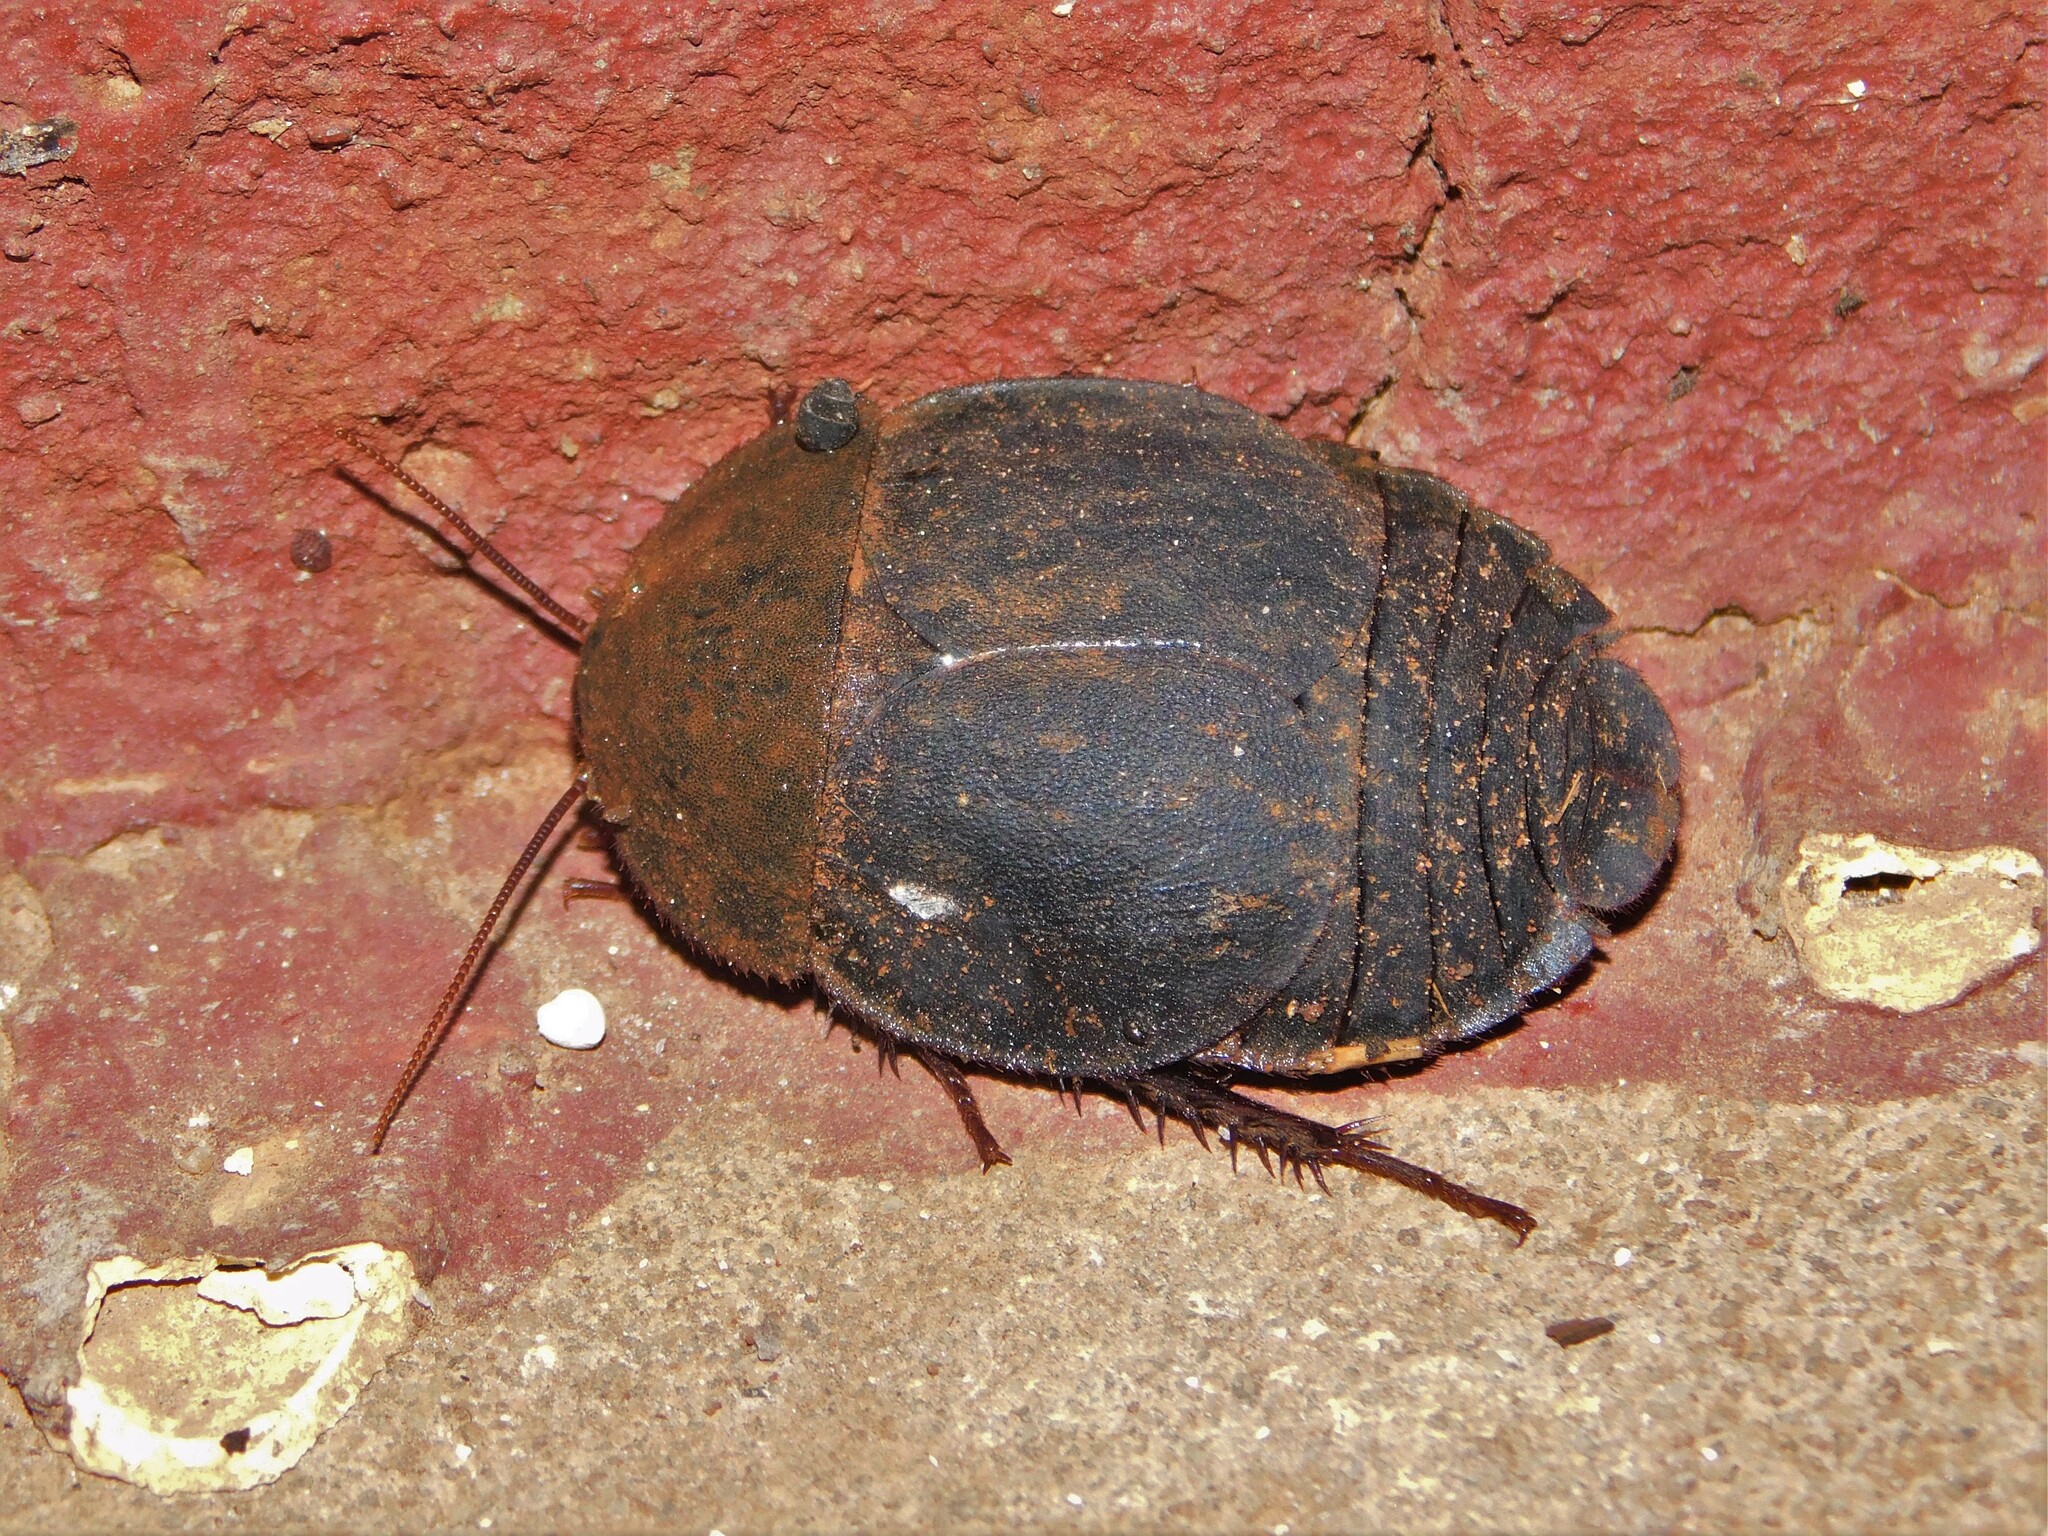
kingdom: Animalia
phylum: Arthropoda
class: Insecta
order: Blattodea
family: Corydiidae
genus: Ergaula
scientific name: Ergaula capensis
